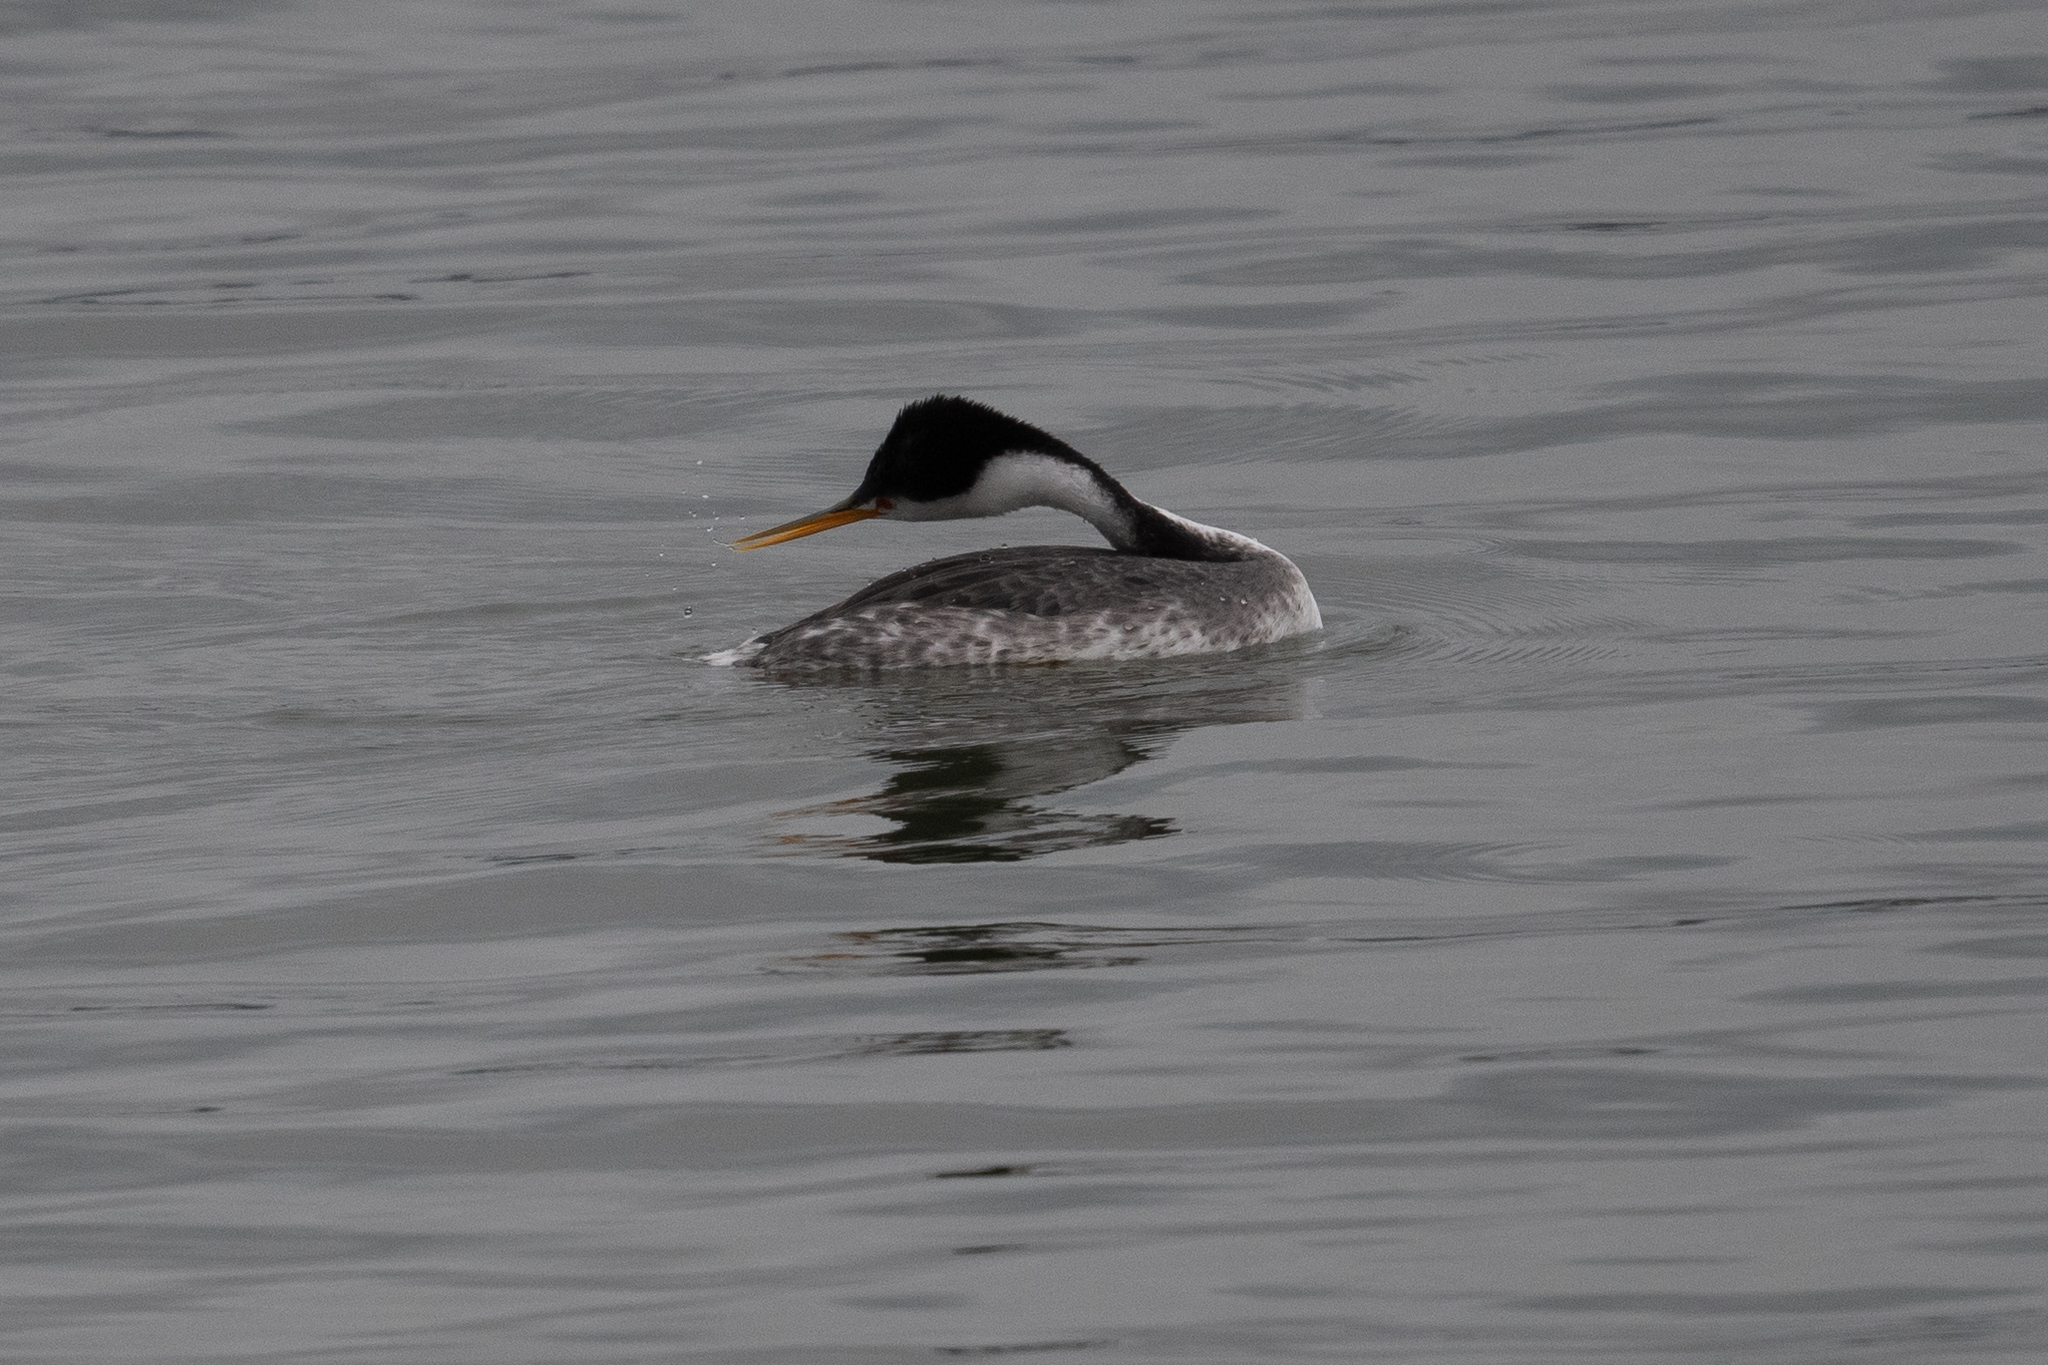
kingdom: Animalia
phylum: Chordata
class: Aves
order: Podicipediformes
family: Podicipedidae
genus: Aechmophorus
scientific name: Aechmophorus clarkii
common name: Clark's grebe
